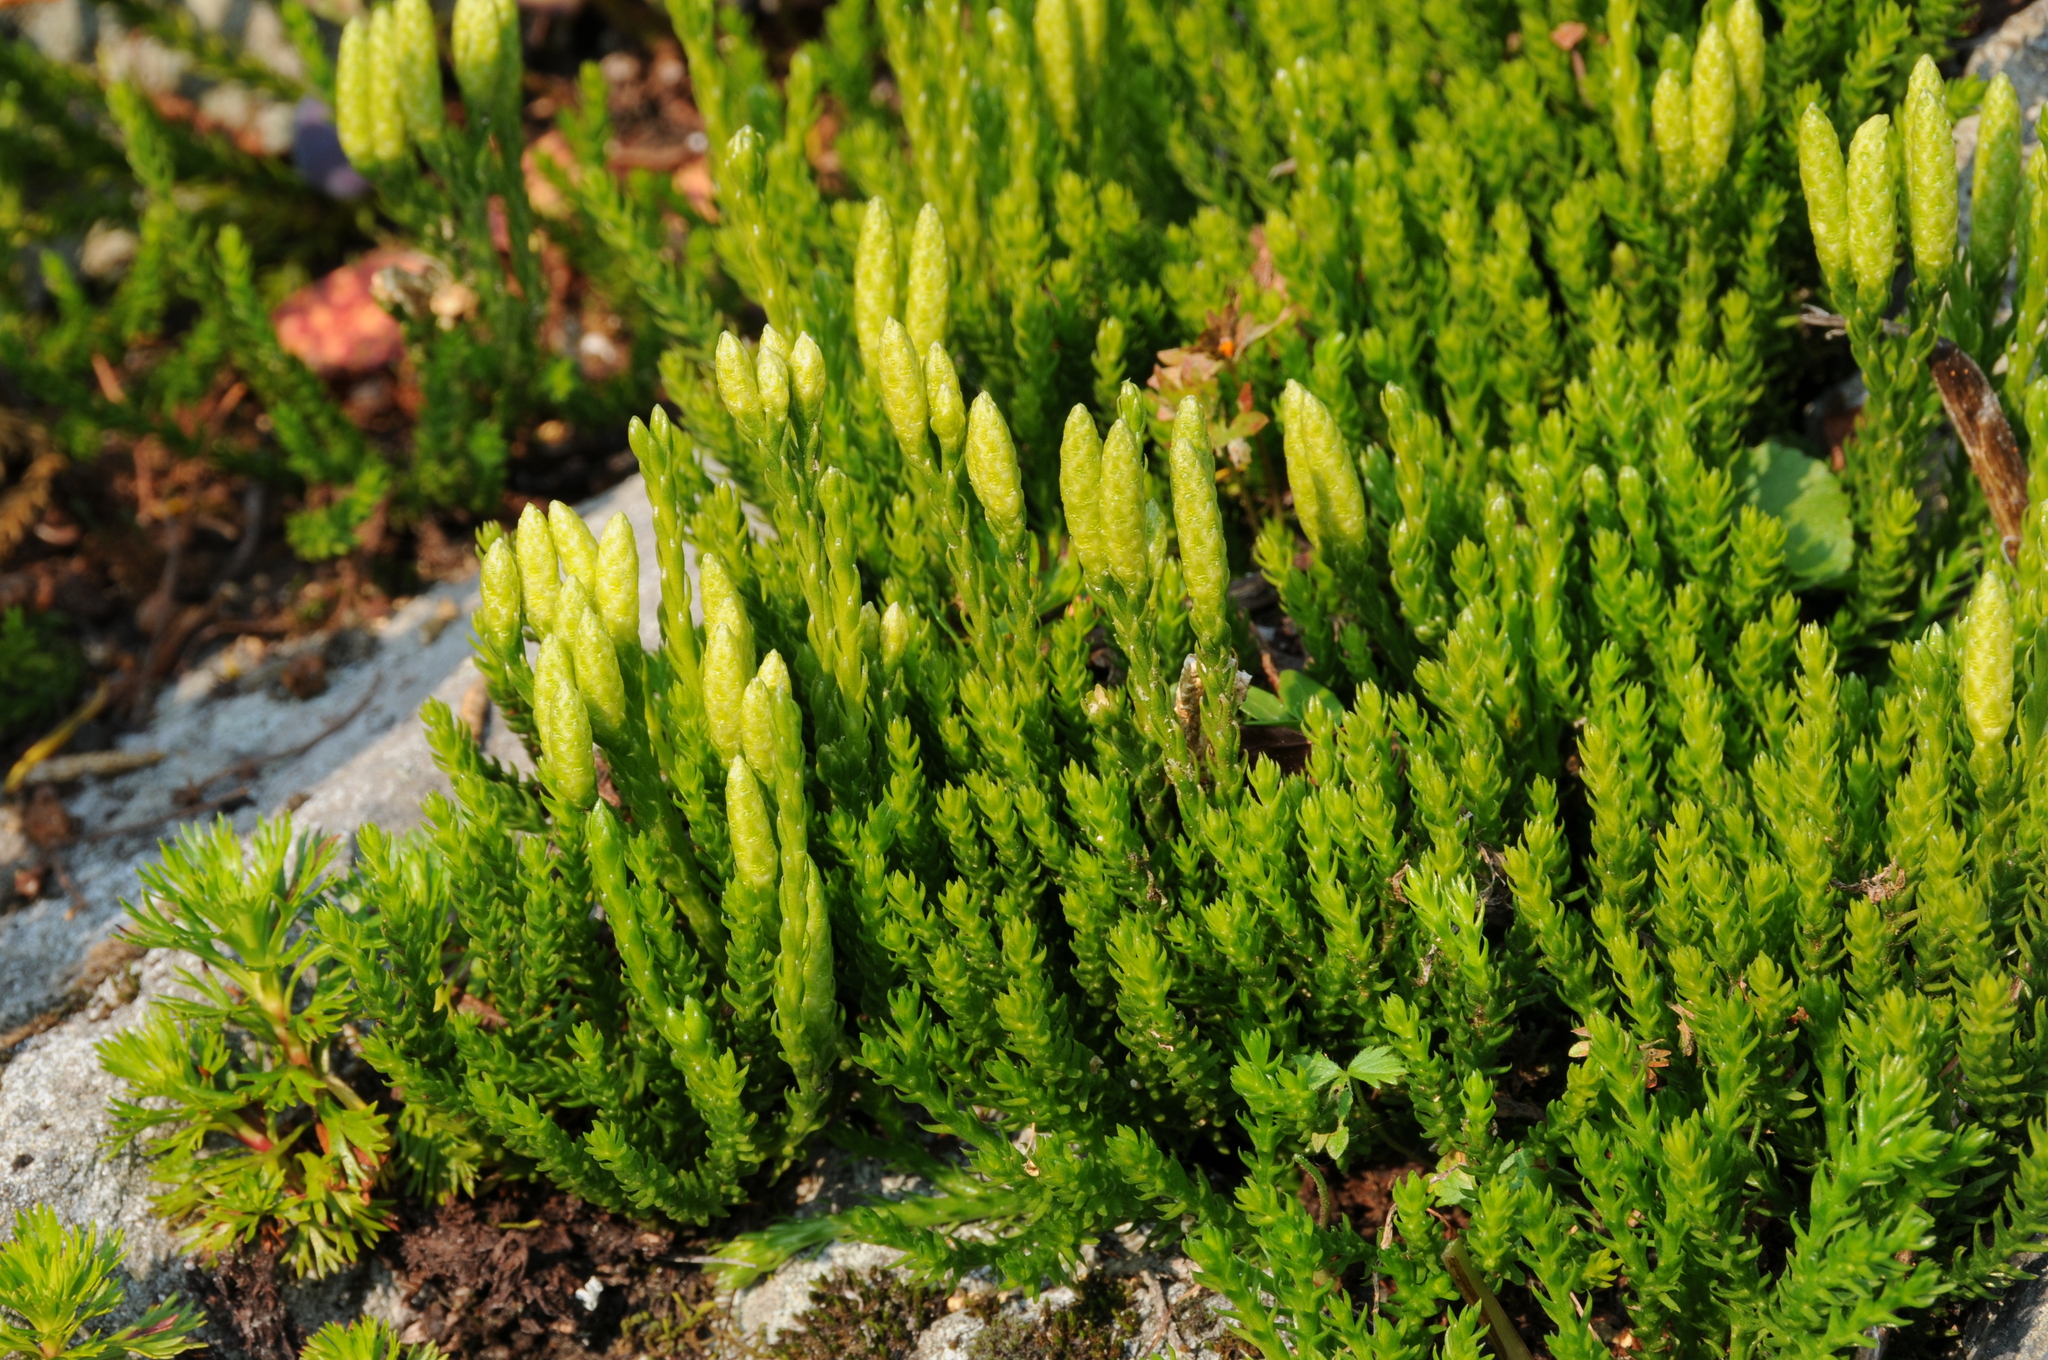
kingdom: Plantae
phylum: Tracheophyta
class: Lycopodiopsida
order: Lycopodiales
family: Lycopodiaceae
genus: Diphasiastrum
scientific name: Diphasiastrum sitchense
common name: Alaska clubmoss
